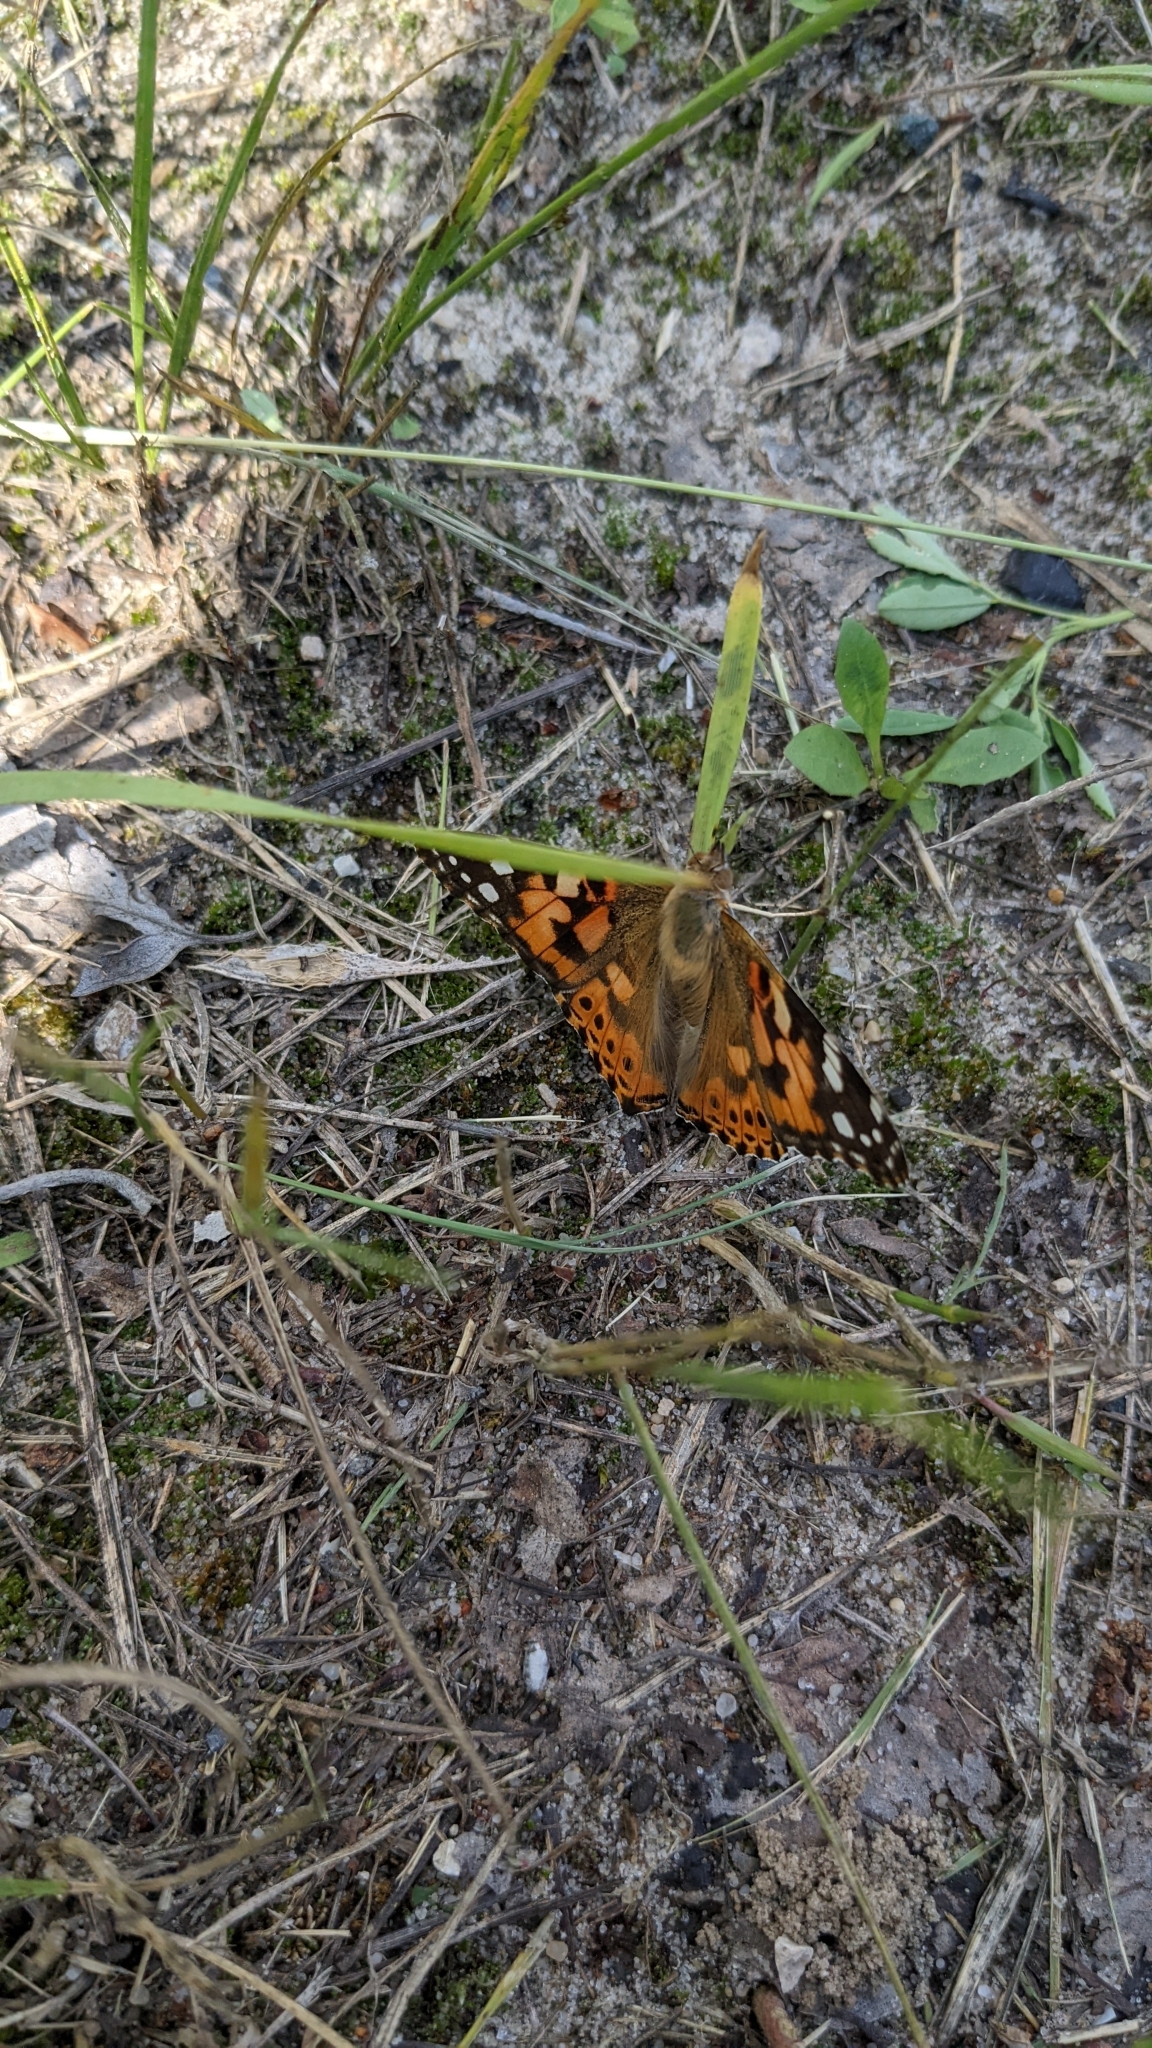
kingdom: Animalia
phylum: Arthropoda
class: Insecta
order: Lepidoptera
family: Nymphalidae
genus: Vanessa
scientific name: Vanessa cardui
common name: Painted lady
